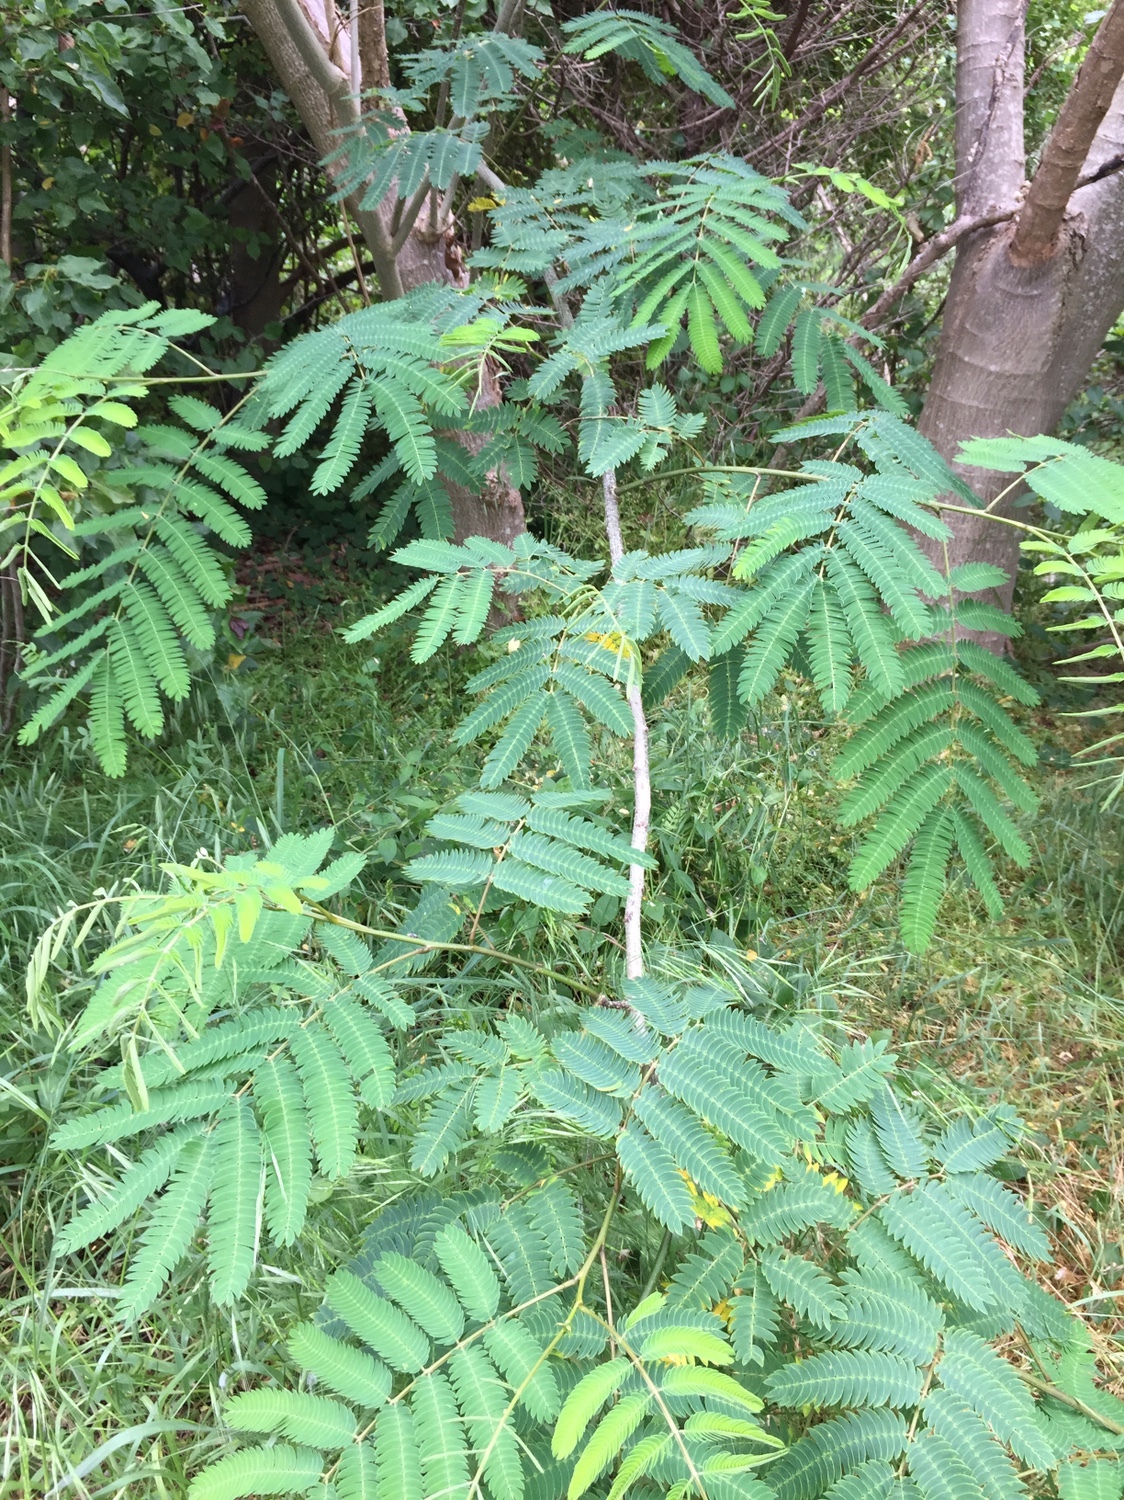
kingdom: Plantae
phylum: Tracheophyta
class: Magnoliopsida
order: Fabales
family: Fabaceae
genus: Albizia
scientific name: Albizia julibrissin
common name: Silktree
